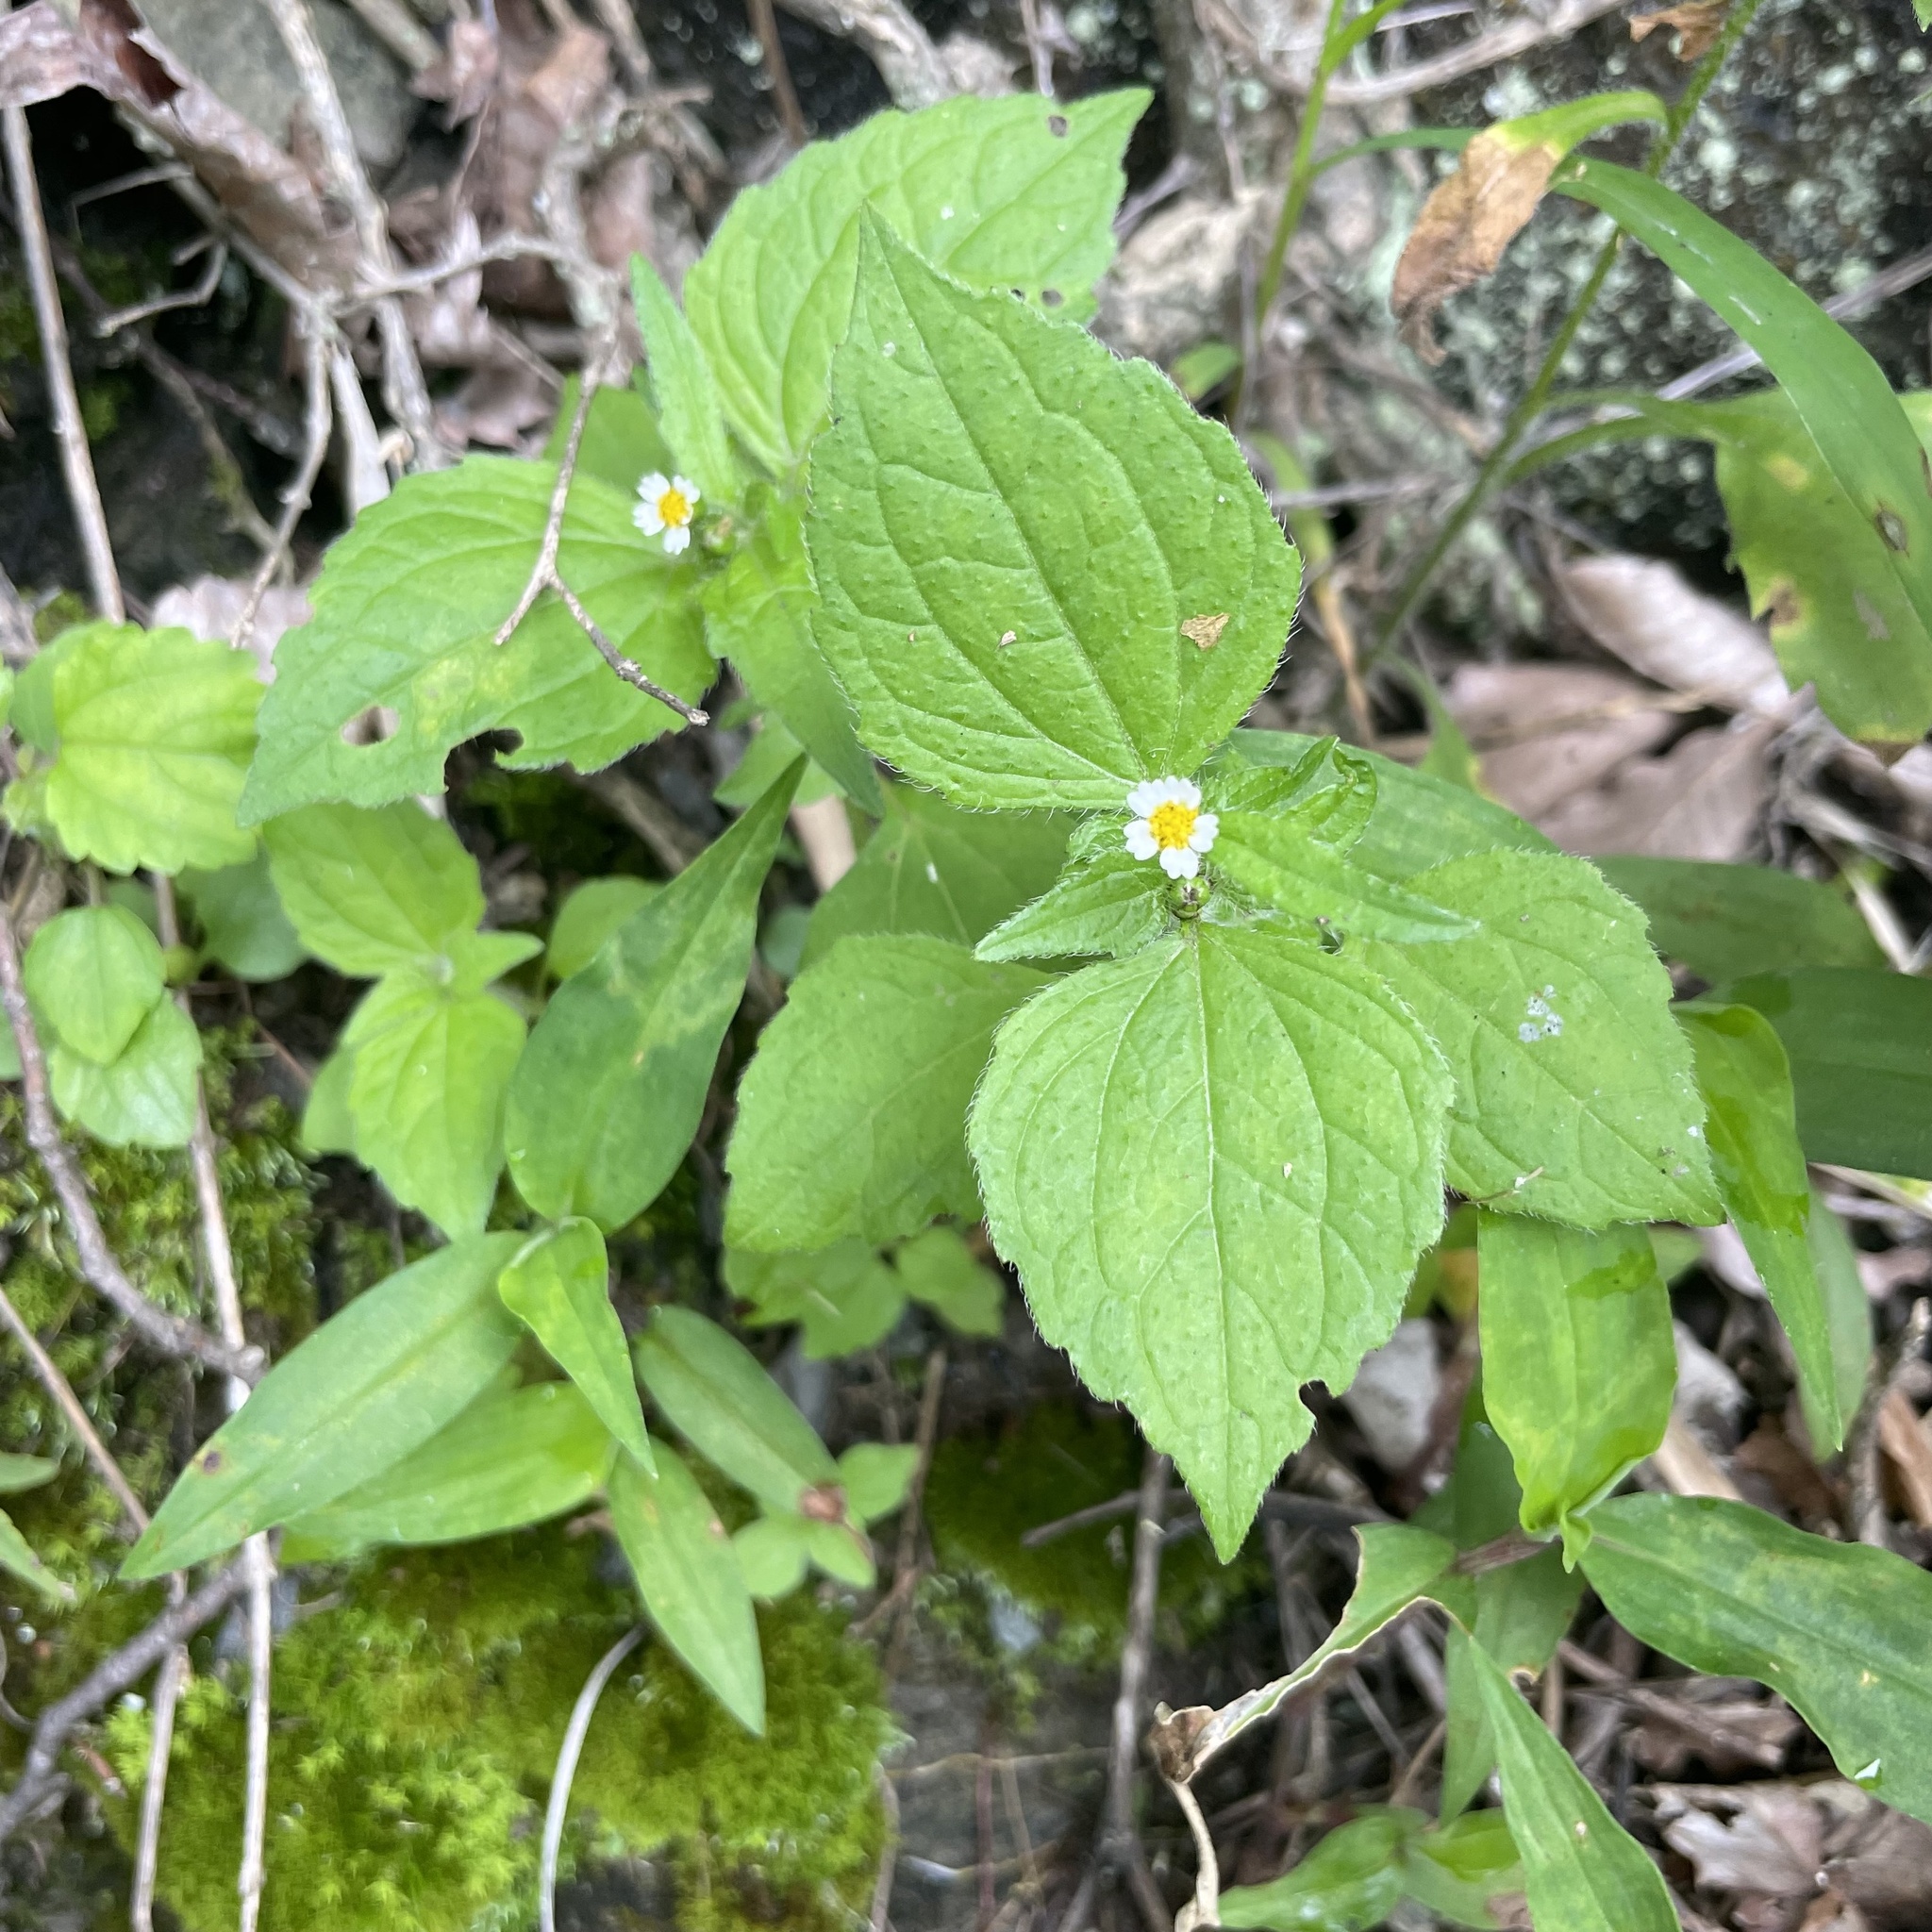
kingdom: Plantae
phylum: Tracheophyta
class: Magnoliopsida
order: Asterales
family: Asteraceae
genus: Galinsoga
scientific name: Galinsoga quadriradiata
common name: Shaggy soldier
